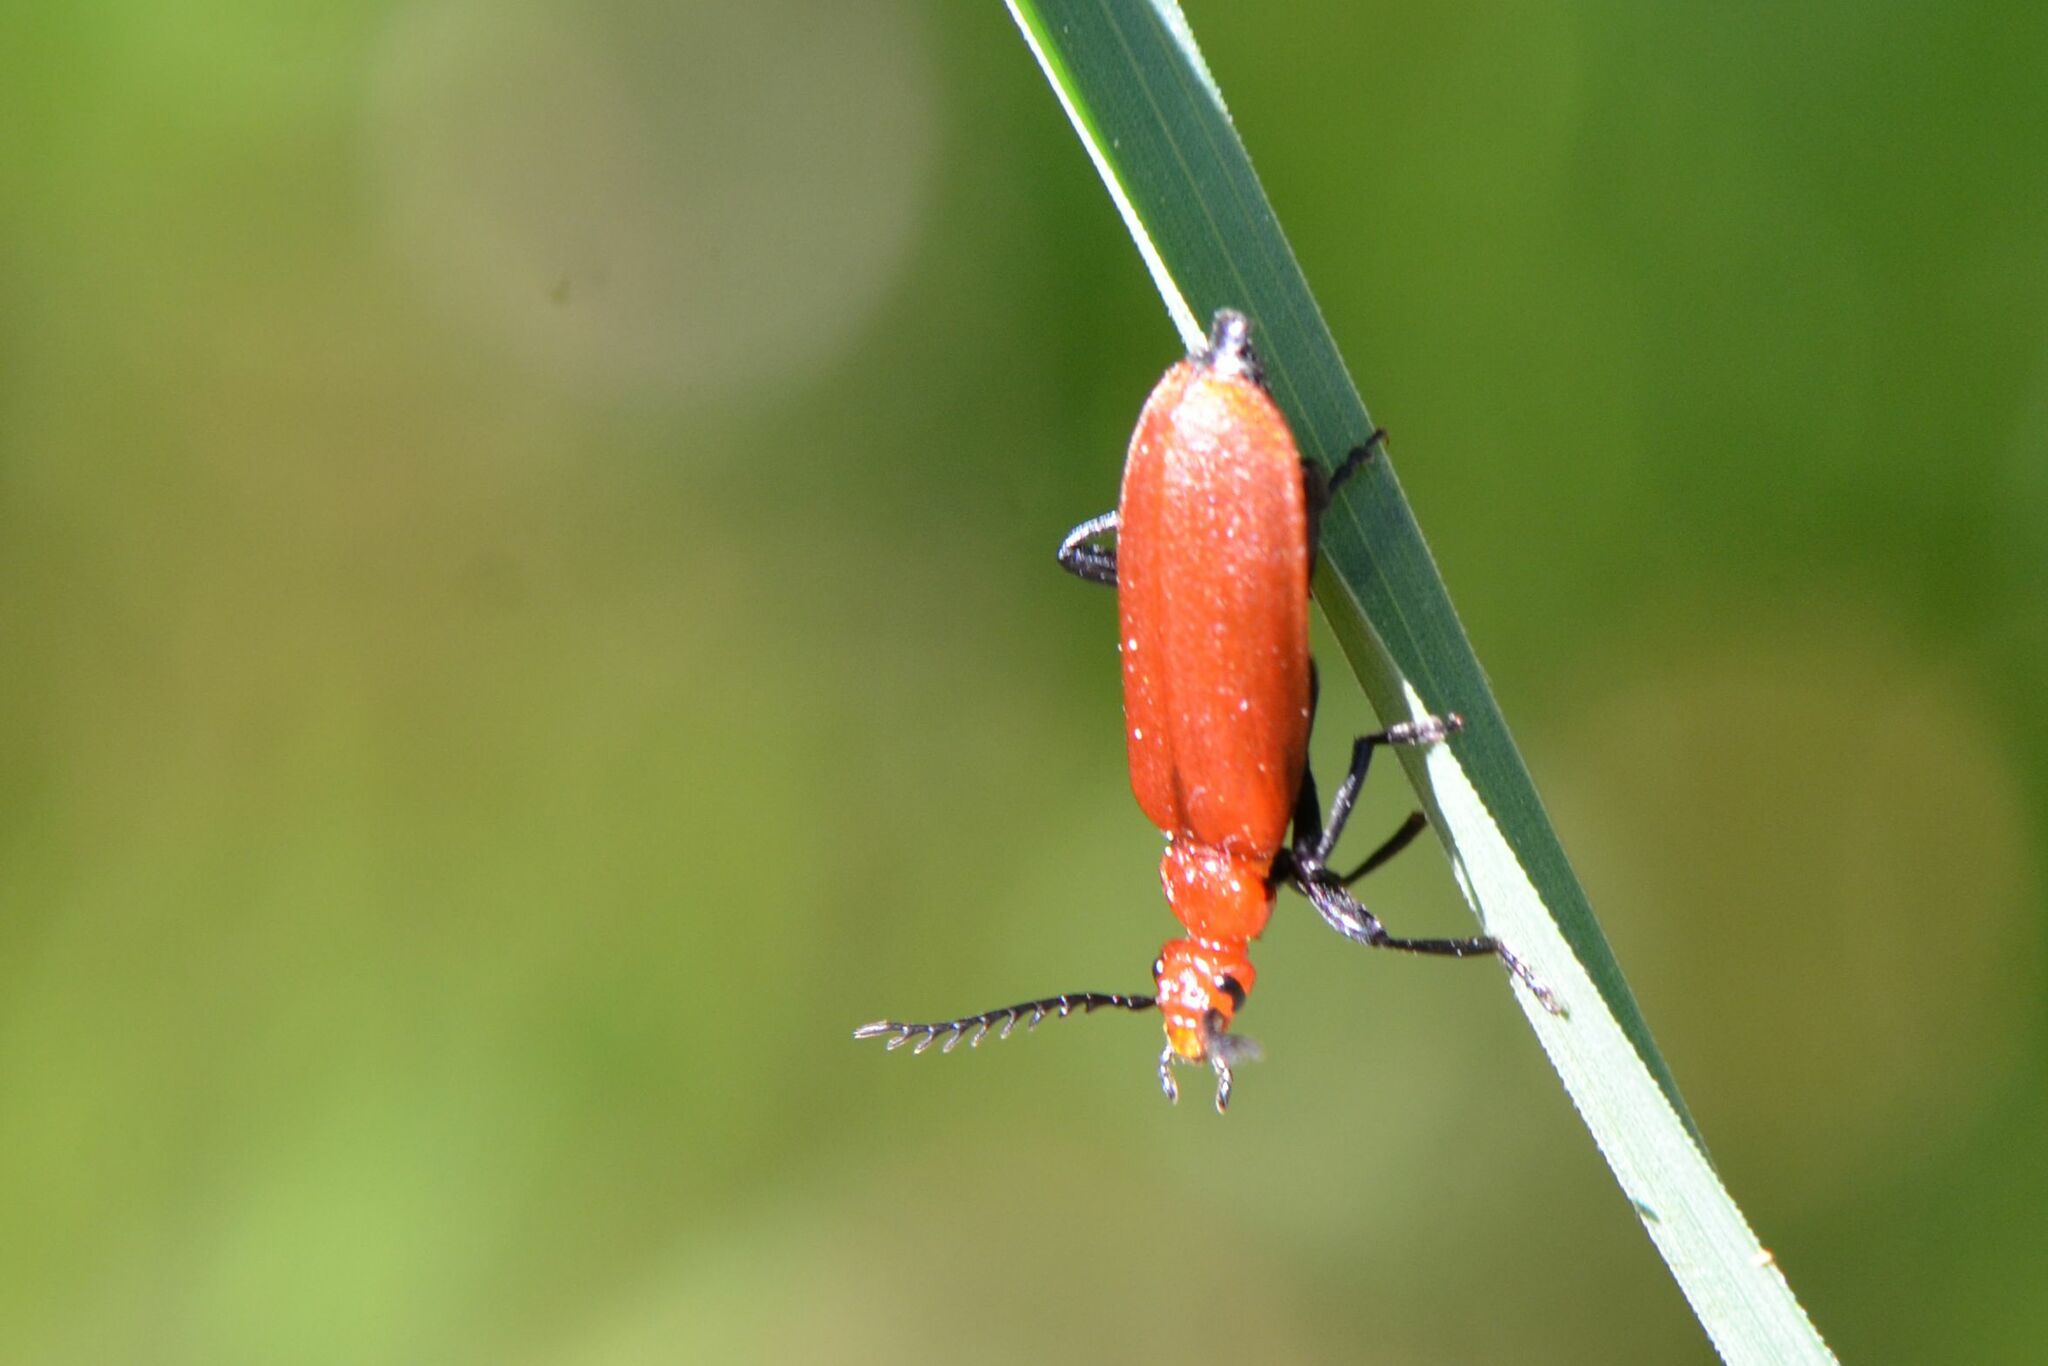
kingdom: Animalia
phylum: Arthropoda
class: Insecta
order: Coleoptera
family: Pyrochroidae
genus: Pyrochroa
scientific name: Pyrochroa serraticornis
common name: Red-headed cardinal beetle
